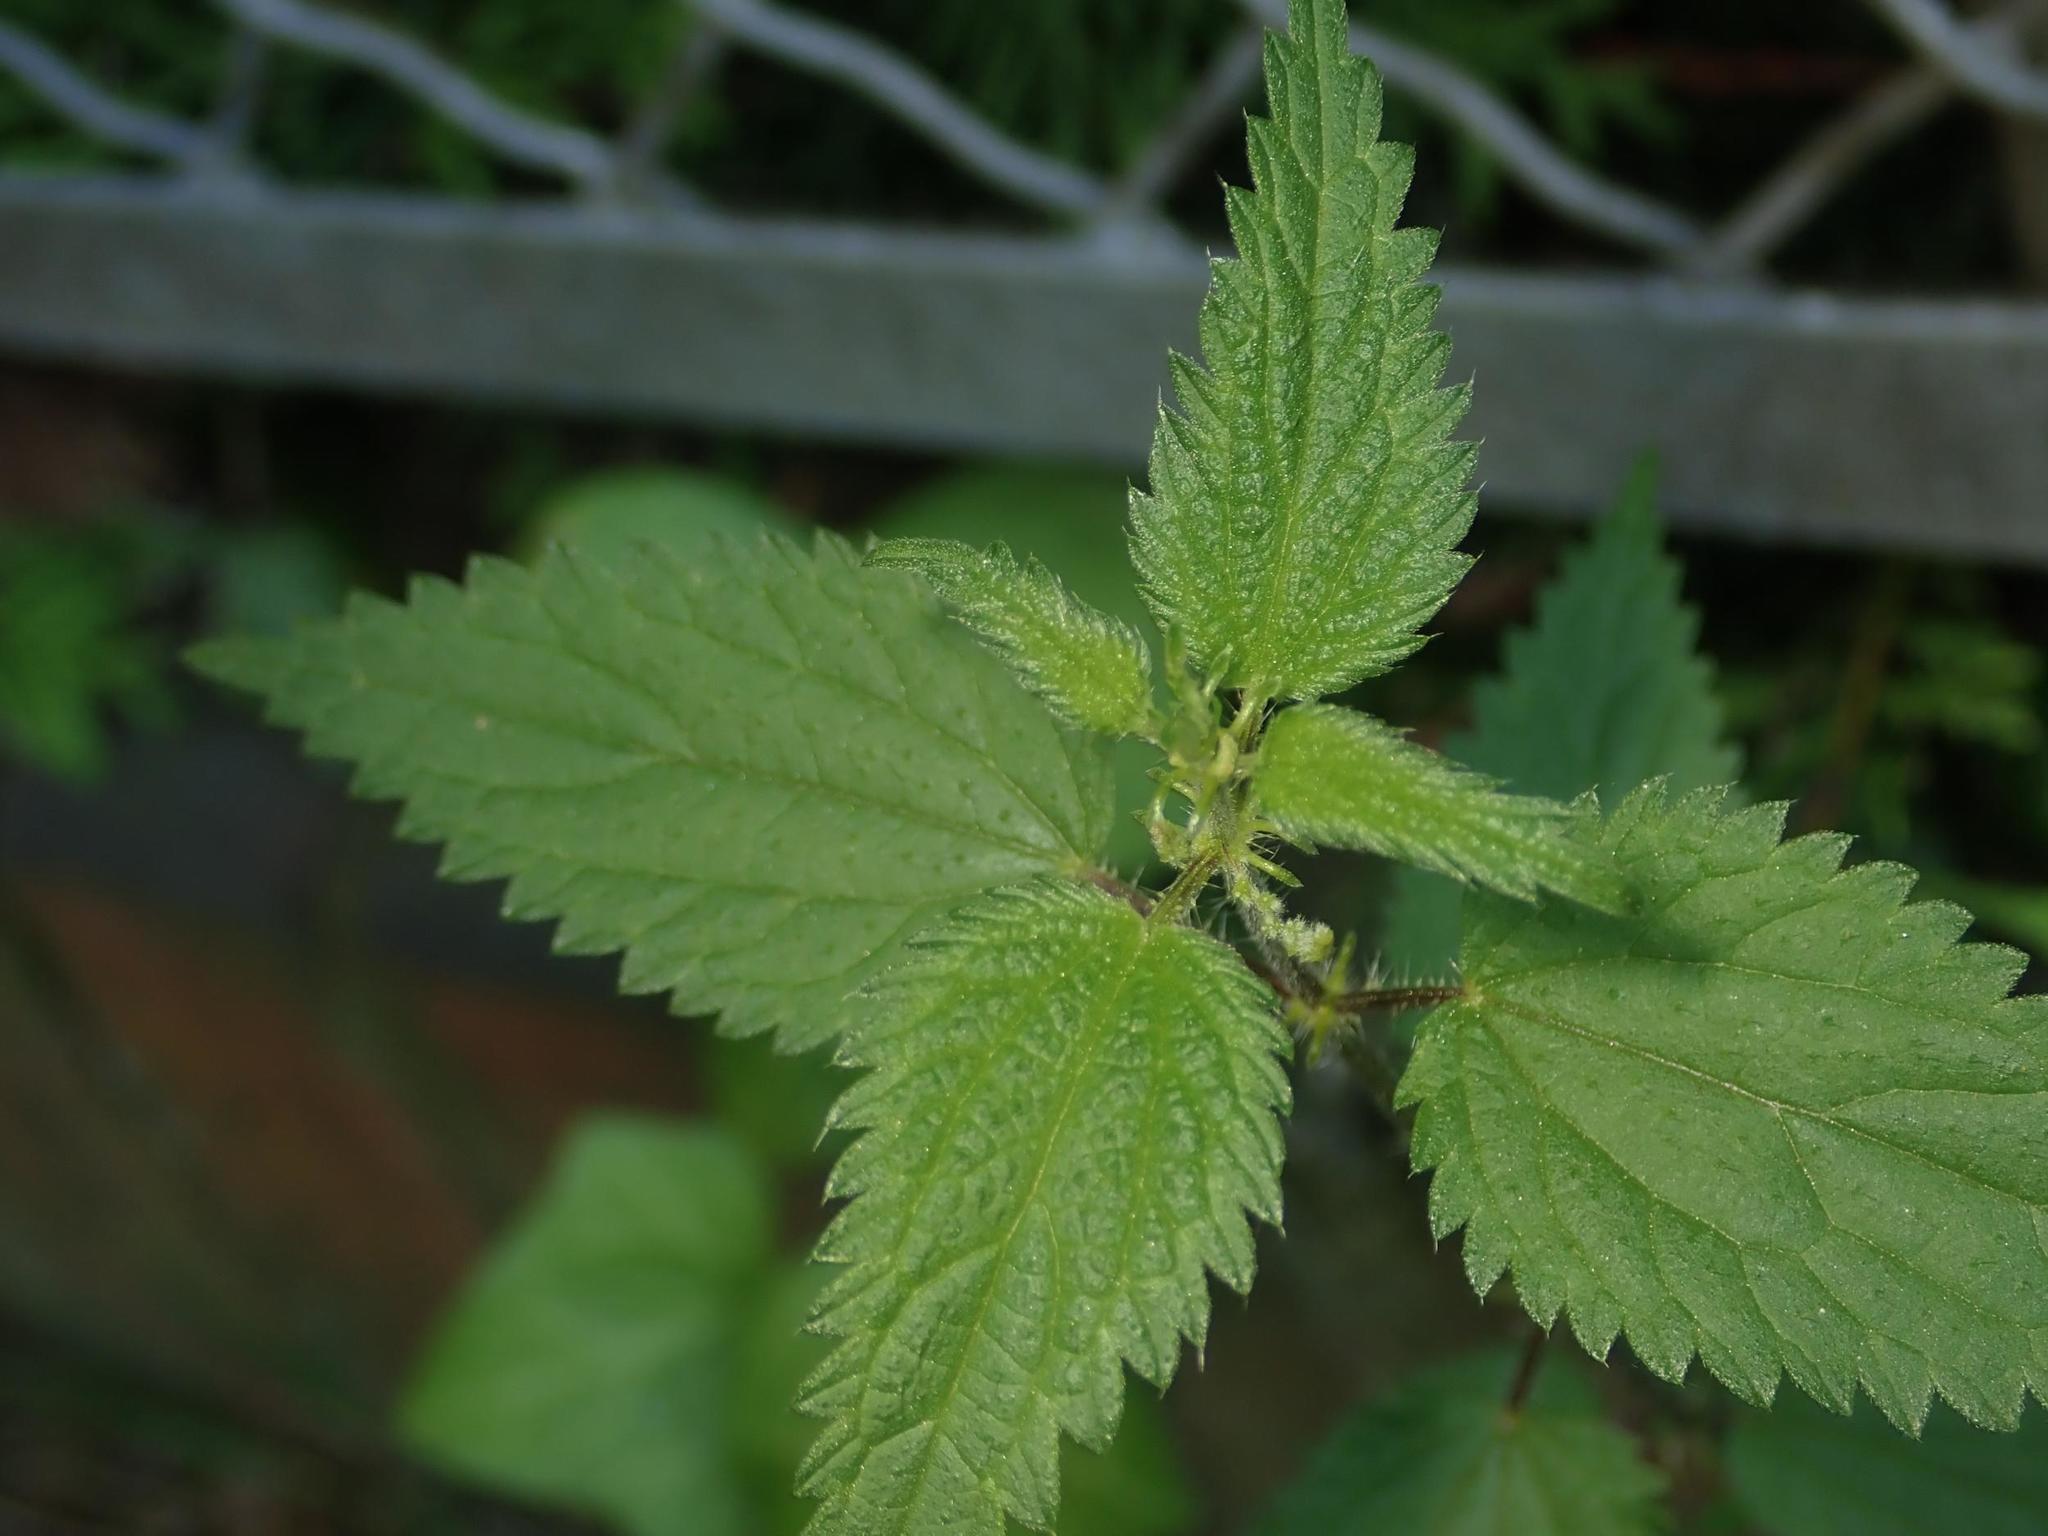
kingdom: Plantae
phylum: Tracheophyta
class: Magnoliopsida
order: Rosales
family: Urticaceae
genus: Urtica
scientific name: Urtica dioica
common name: Common nettle
